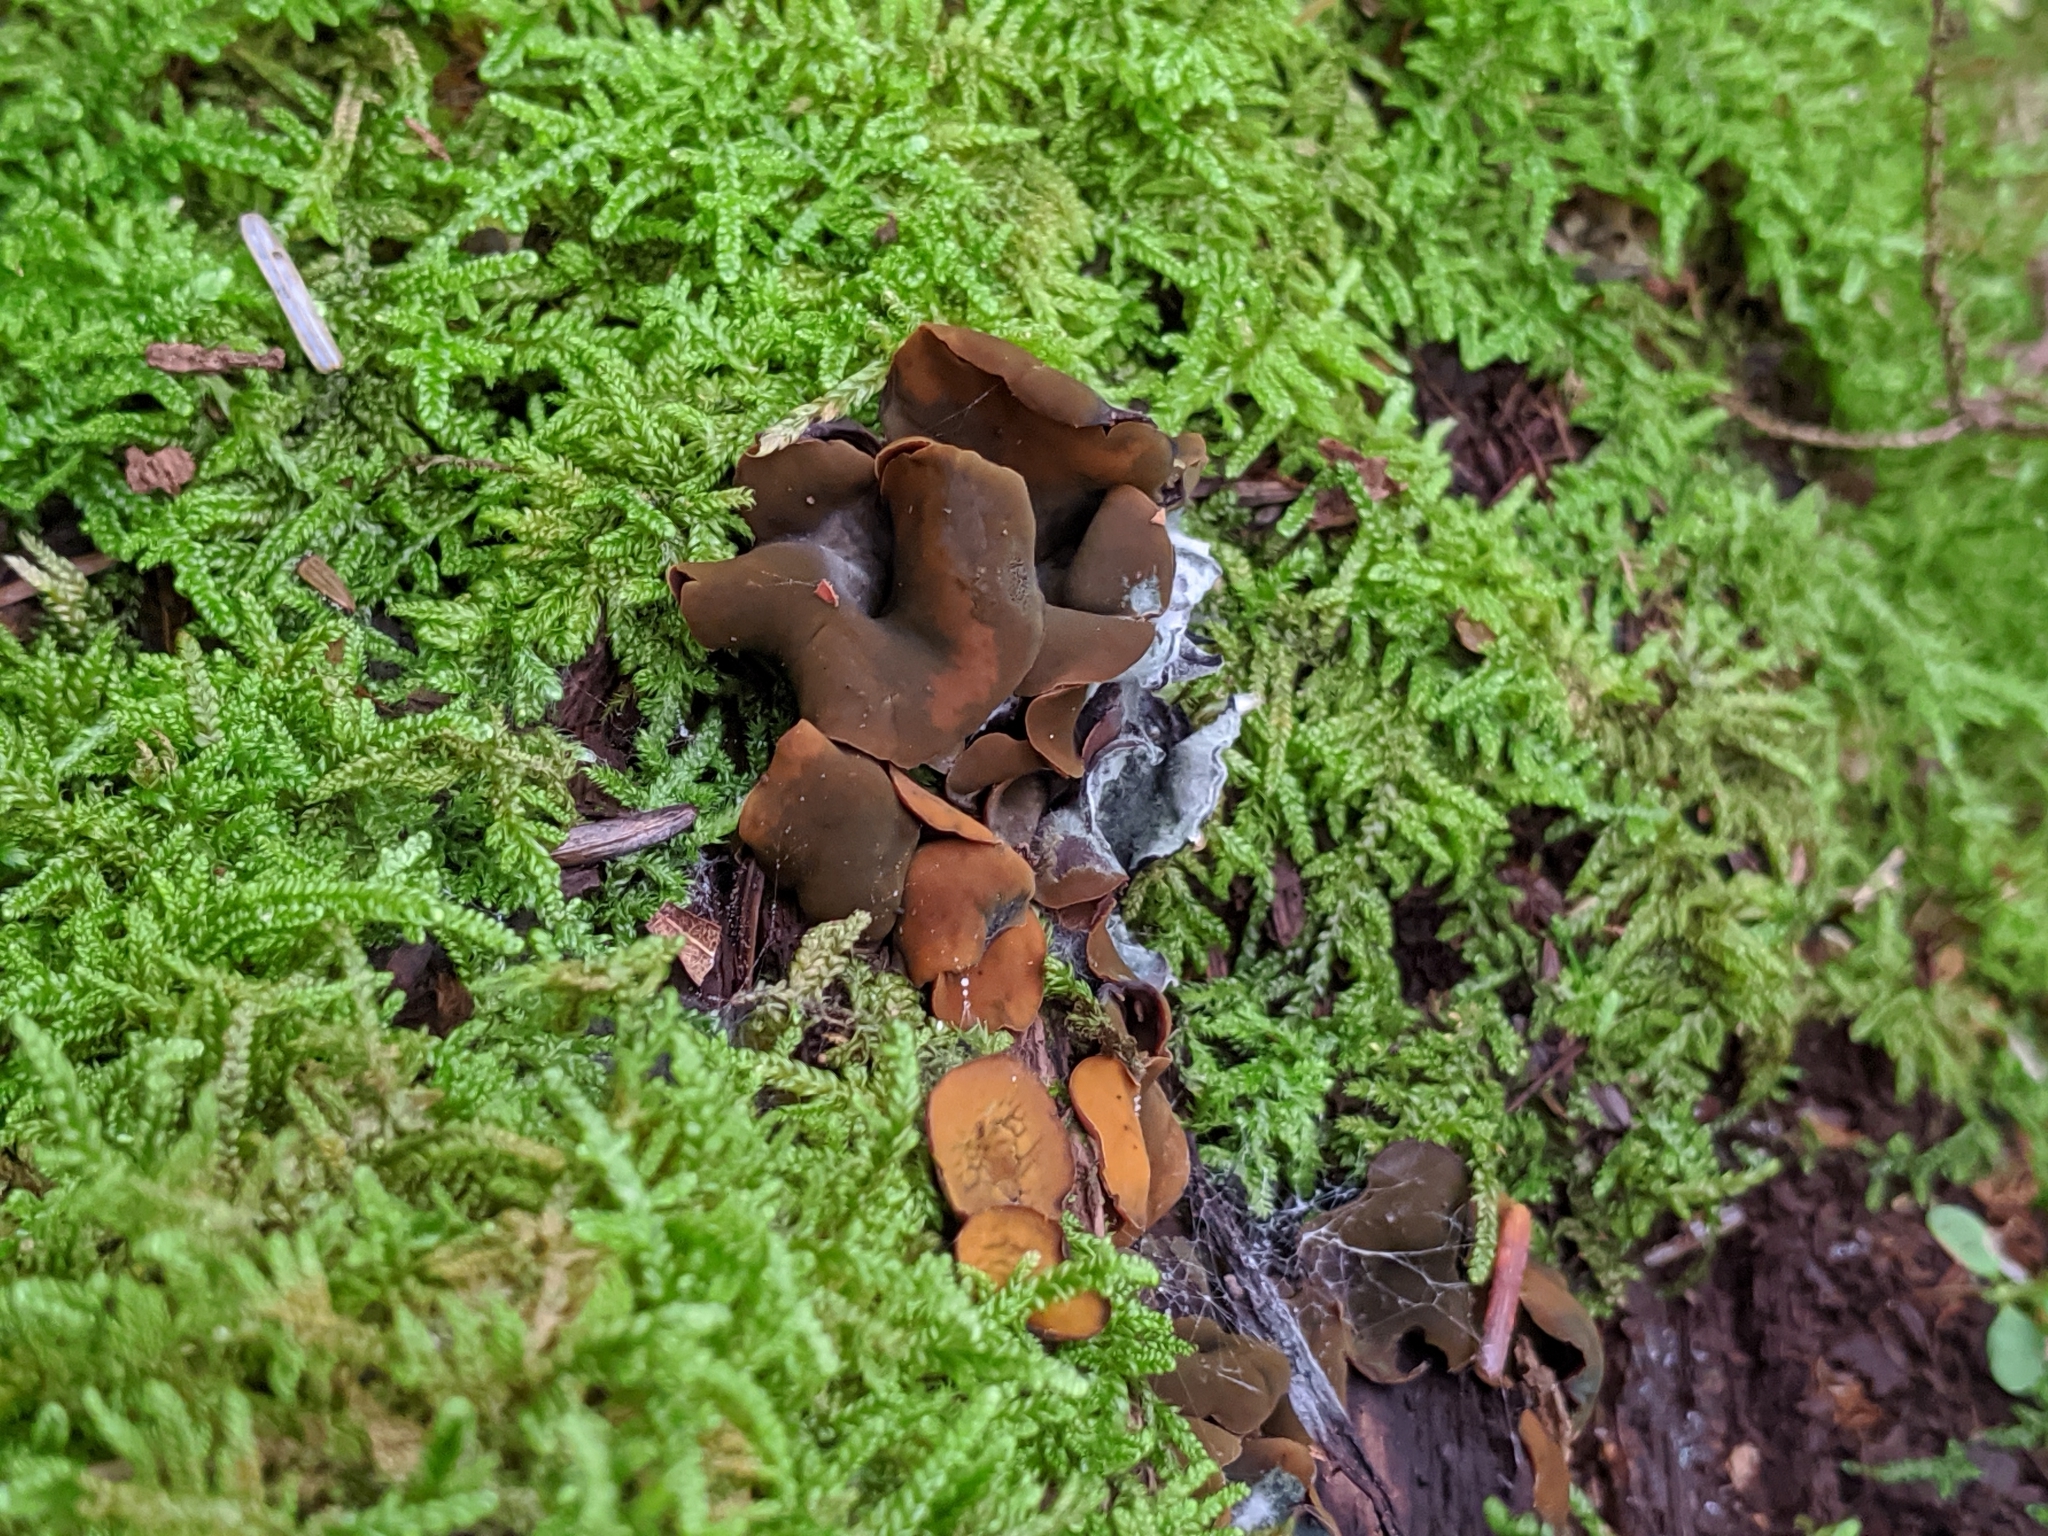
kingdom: Fungi
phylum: Ascomycota
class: Leotiomycetes
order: Helotiales
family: Cenangiaceae
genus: Chlorencoelia
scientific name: Chlorencoelia
